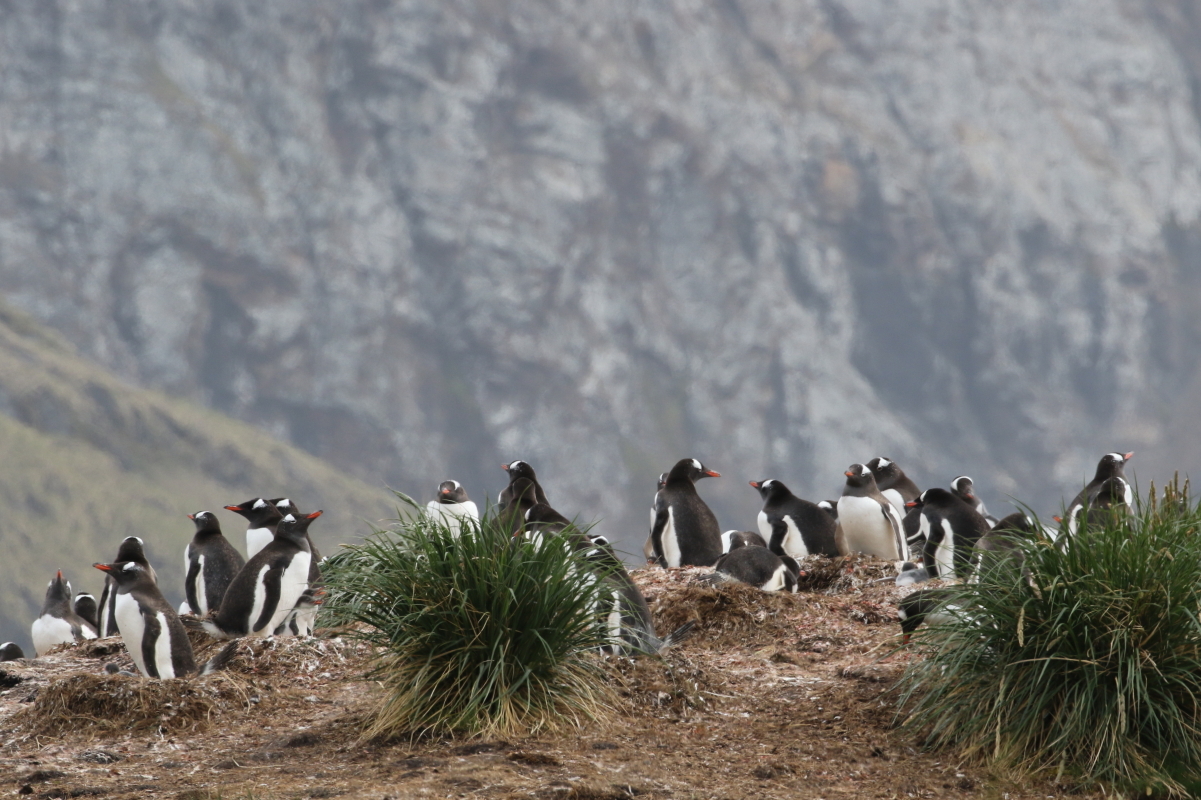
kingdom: Animalia
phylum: Chordata
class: Aves
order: Sphenisciformes
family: Spheniscidae
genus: Pygoscelis
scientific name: Pygoscelis papua
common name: Gentoo penguin
